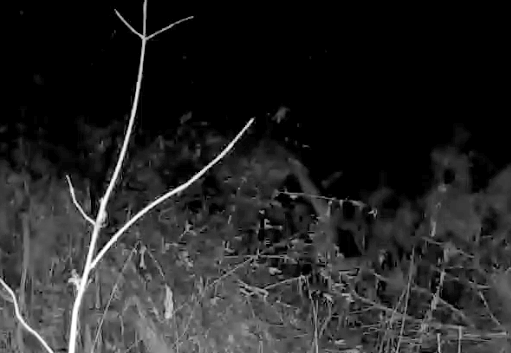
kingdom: Animalia
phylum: Chordata
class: Mammalia
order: Carnivora
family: Felidae
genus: Puma
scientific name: Puma concolor
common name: Puma
